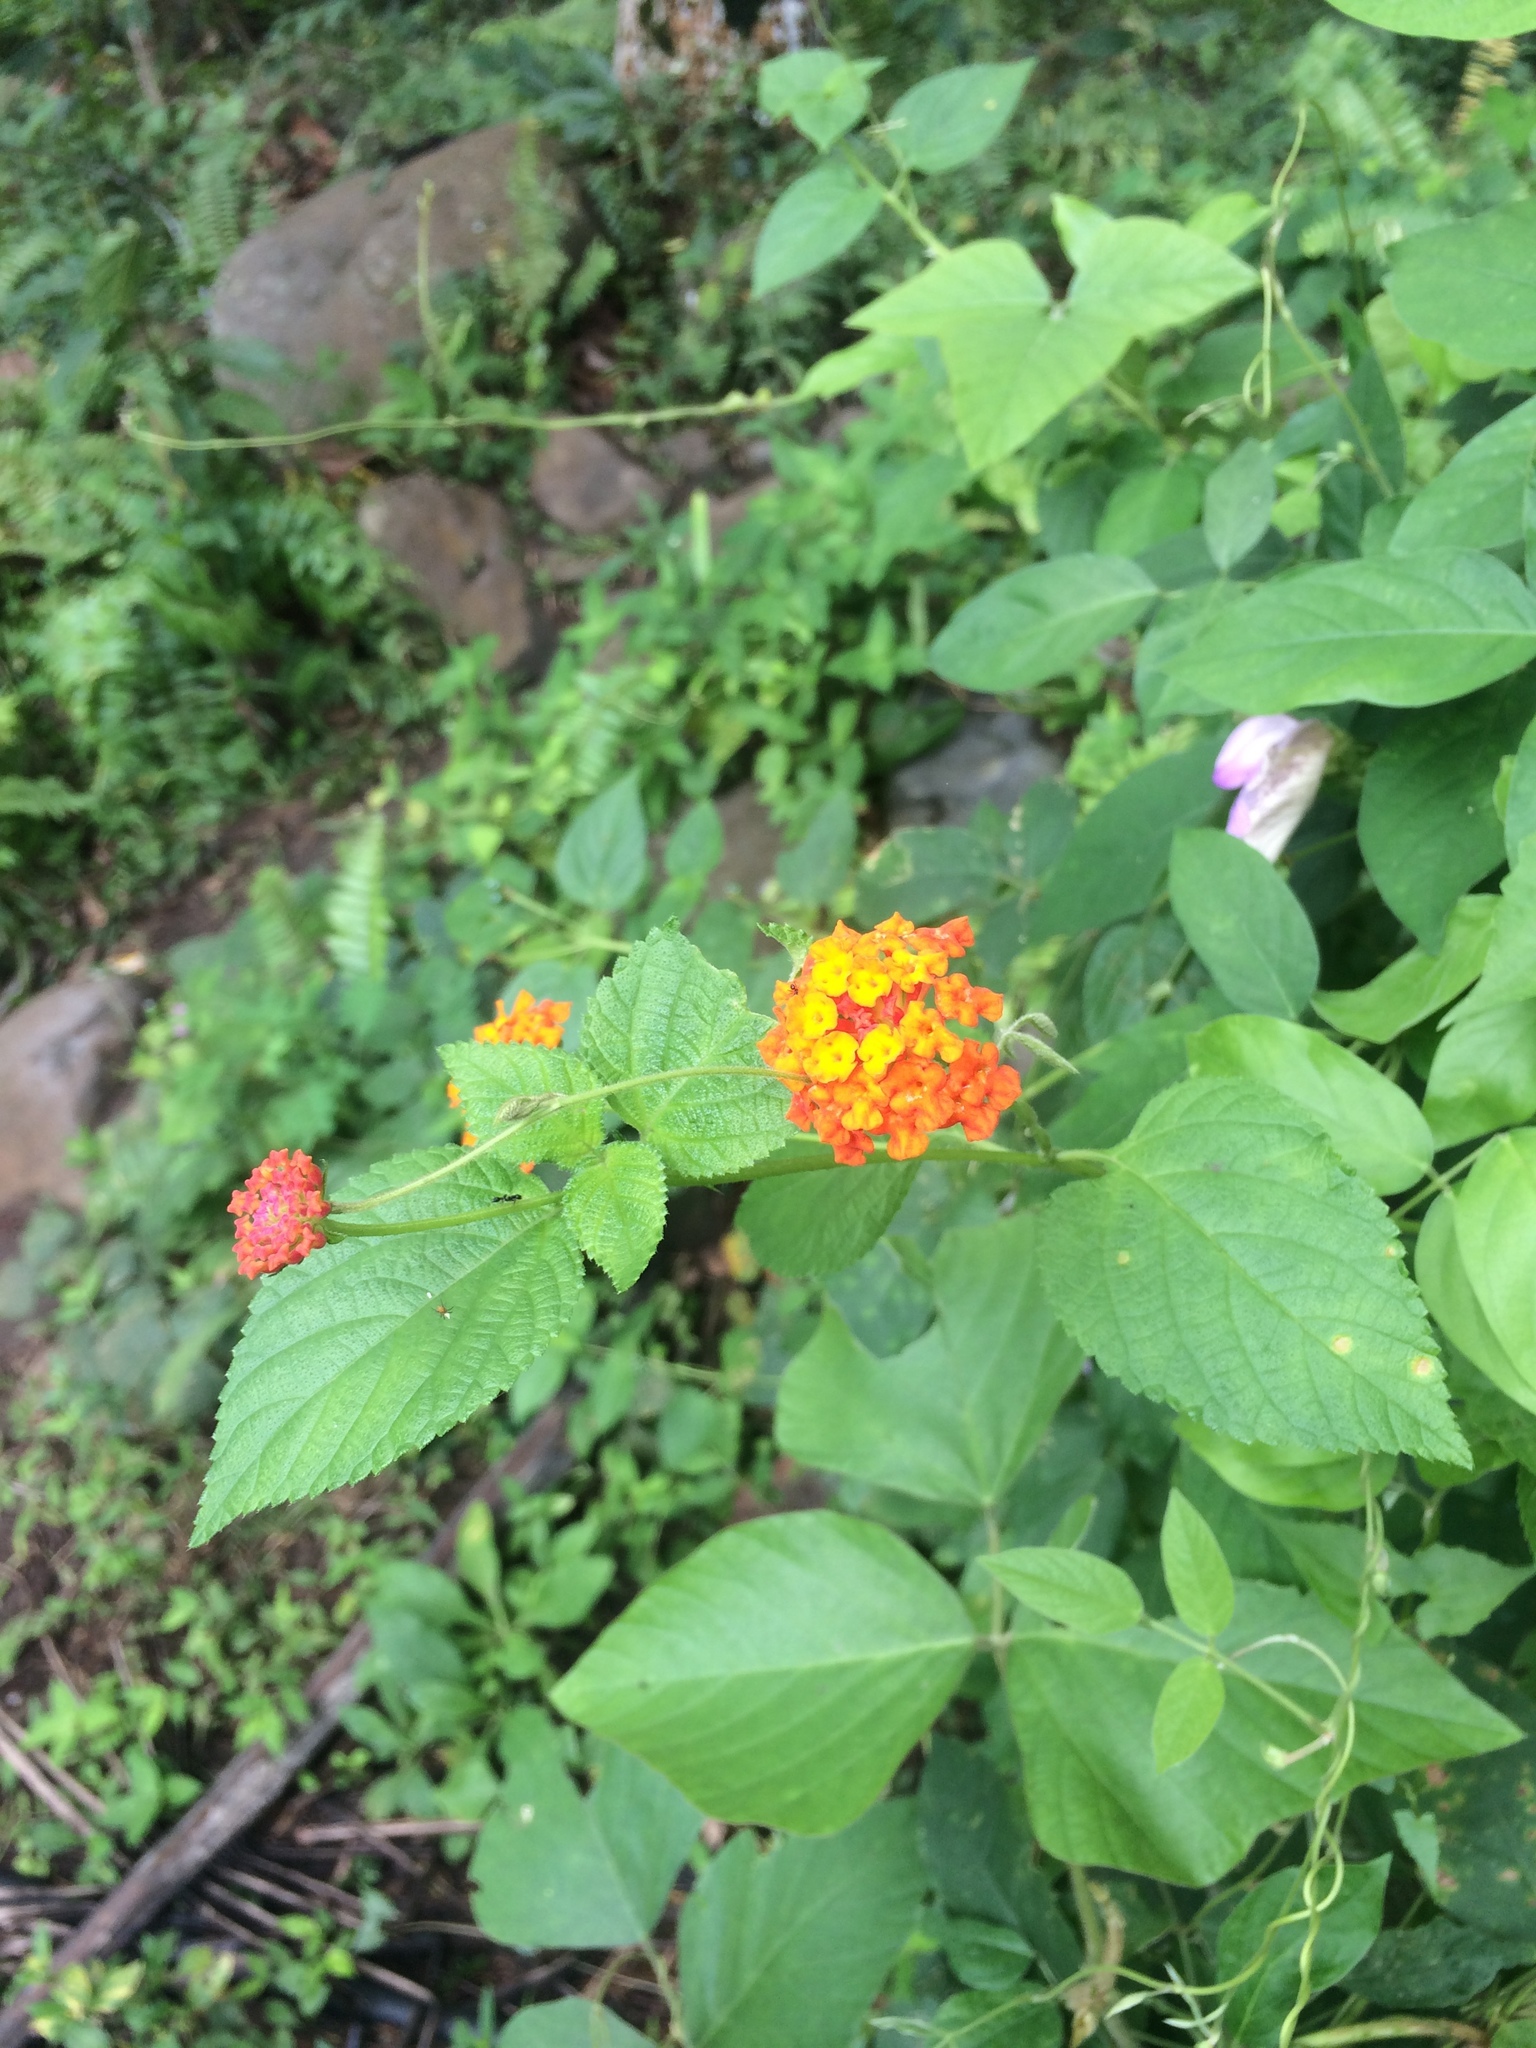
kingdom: Plantae
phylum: Tracheophyta
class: Magnoliopsida
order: Lamiales
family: Verbenaceae
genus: Lantana
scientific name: Lantana camara
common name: Lantana
